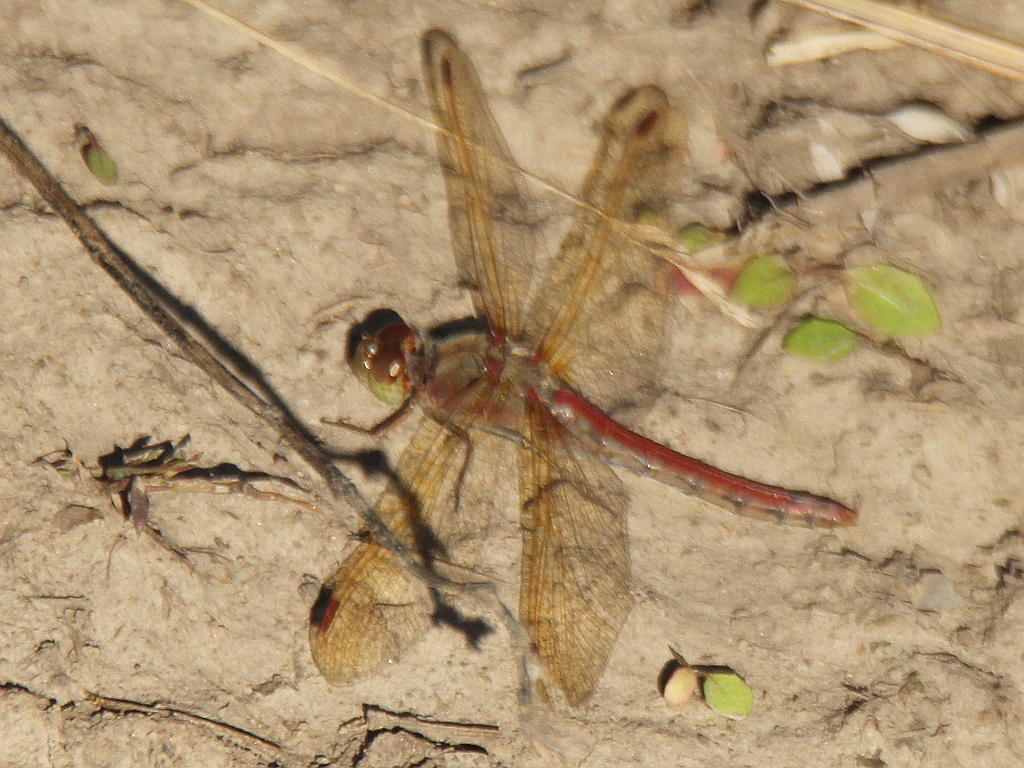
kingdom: Animalia
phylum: Arthropoda
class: Insecta
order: Odonata
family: Libellulidae
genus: Sympetrum
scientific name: Sympetrum striolatum
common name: Common darter
